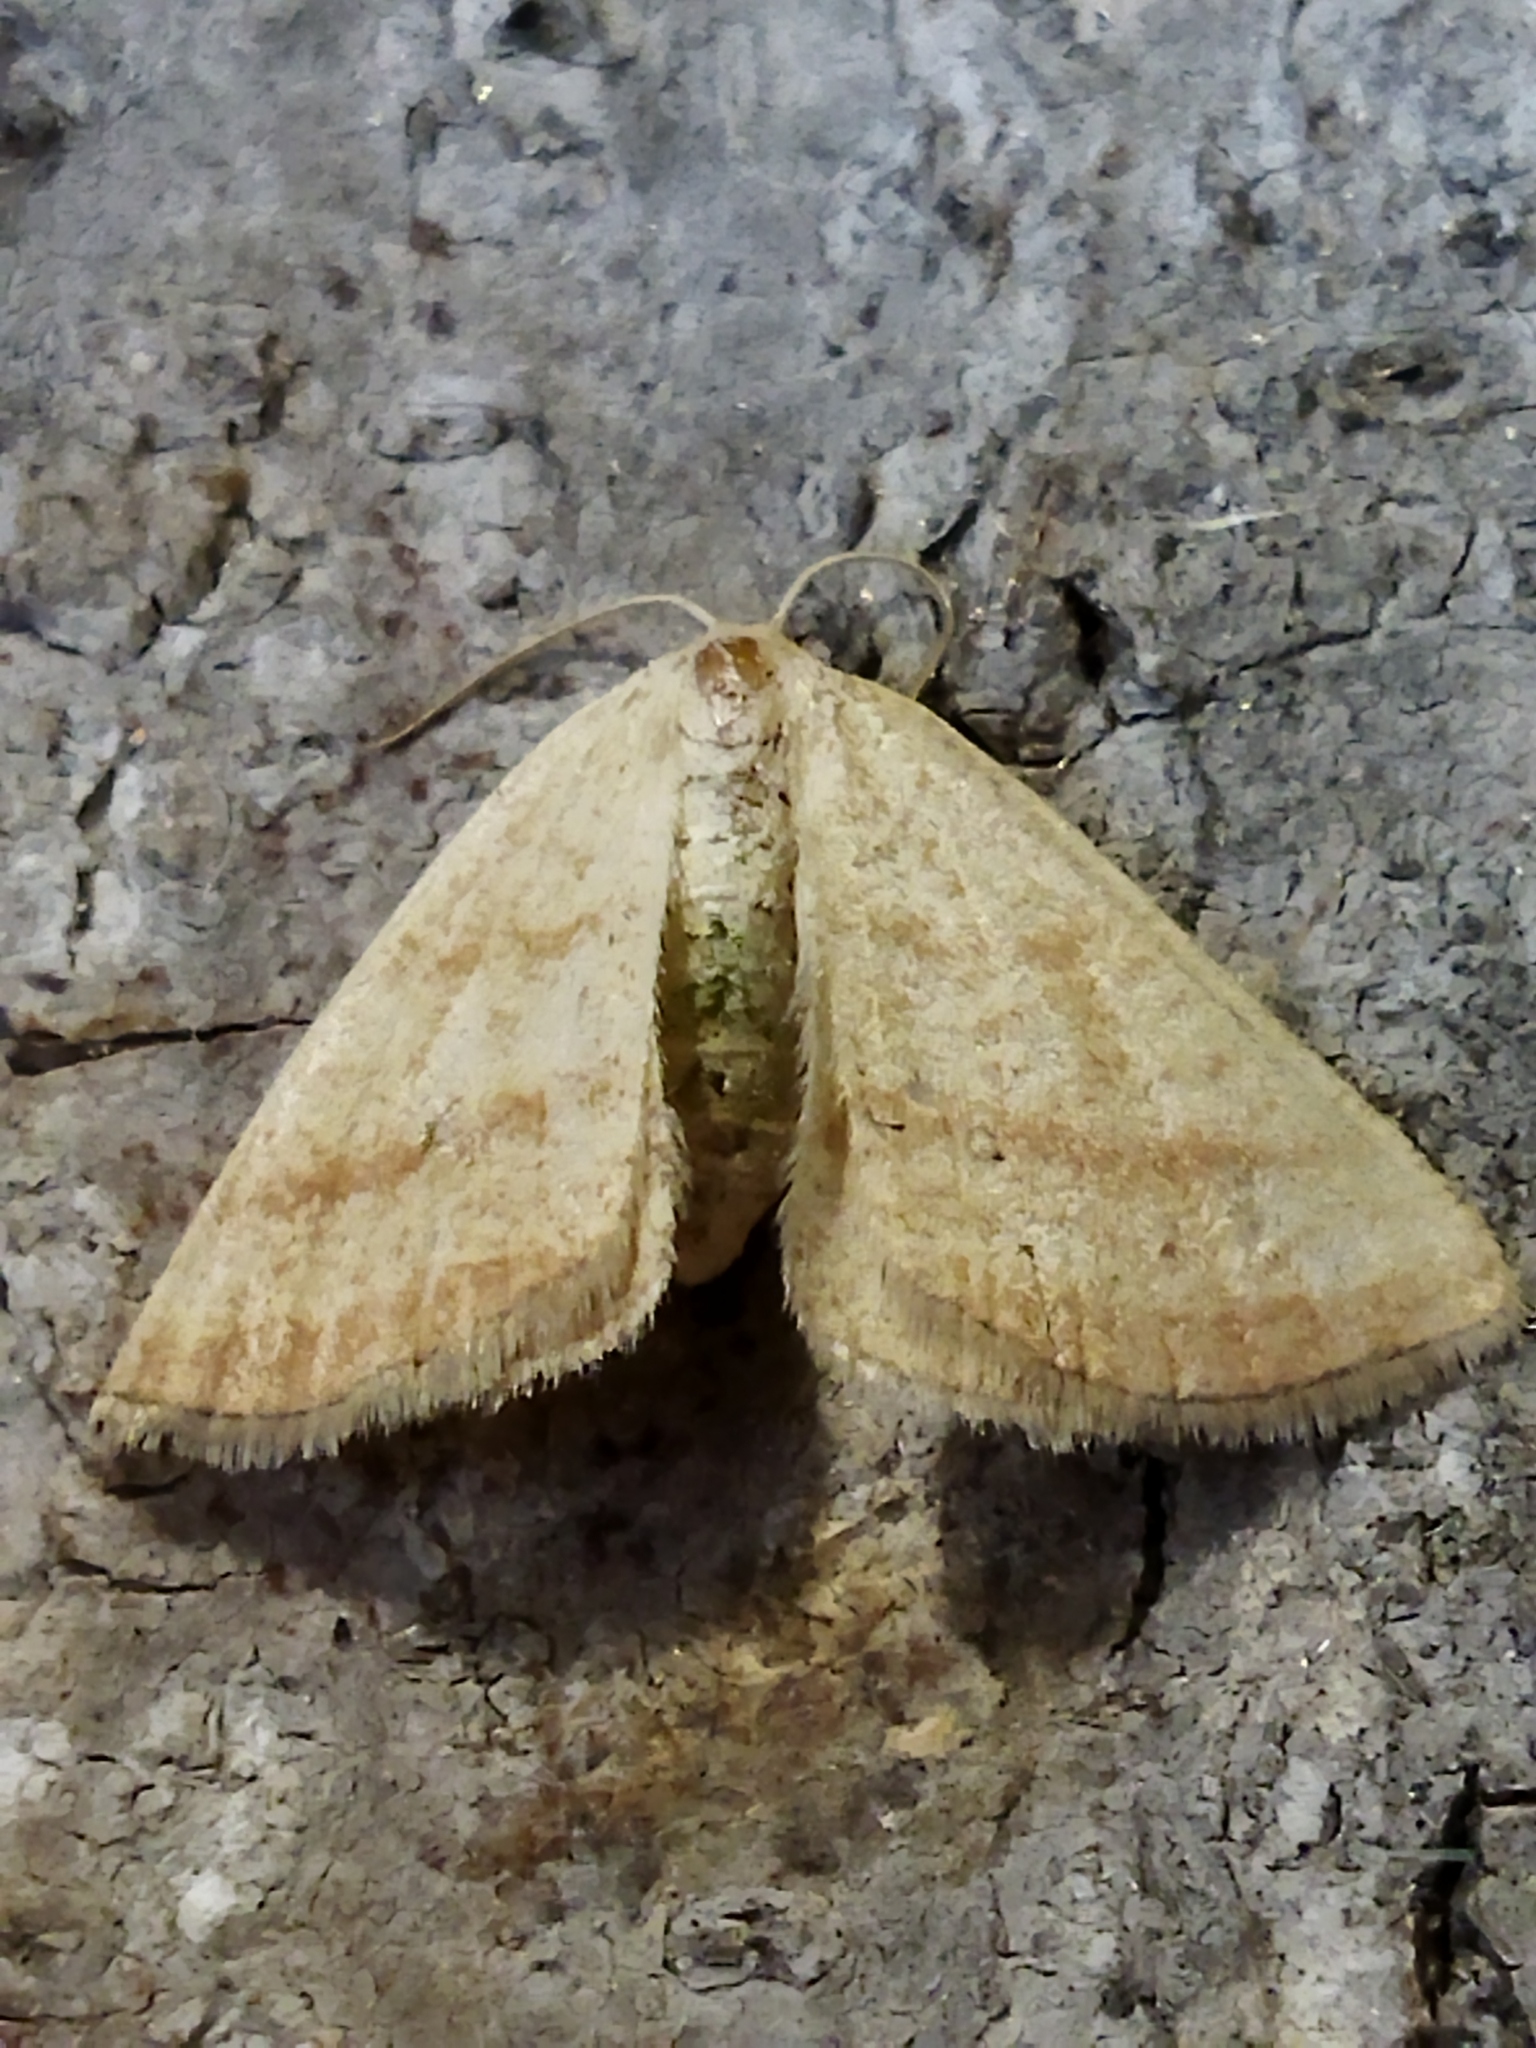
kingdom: Animalia
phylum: Arthropoda
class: Insecta
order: Lepidoptera
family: Geometridae
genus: Aplasta
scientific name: Aplasta ononaria
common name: Rest harrow
